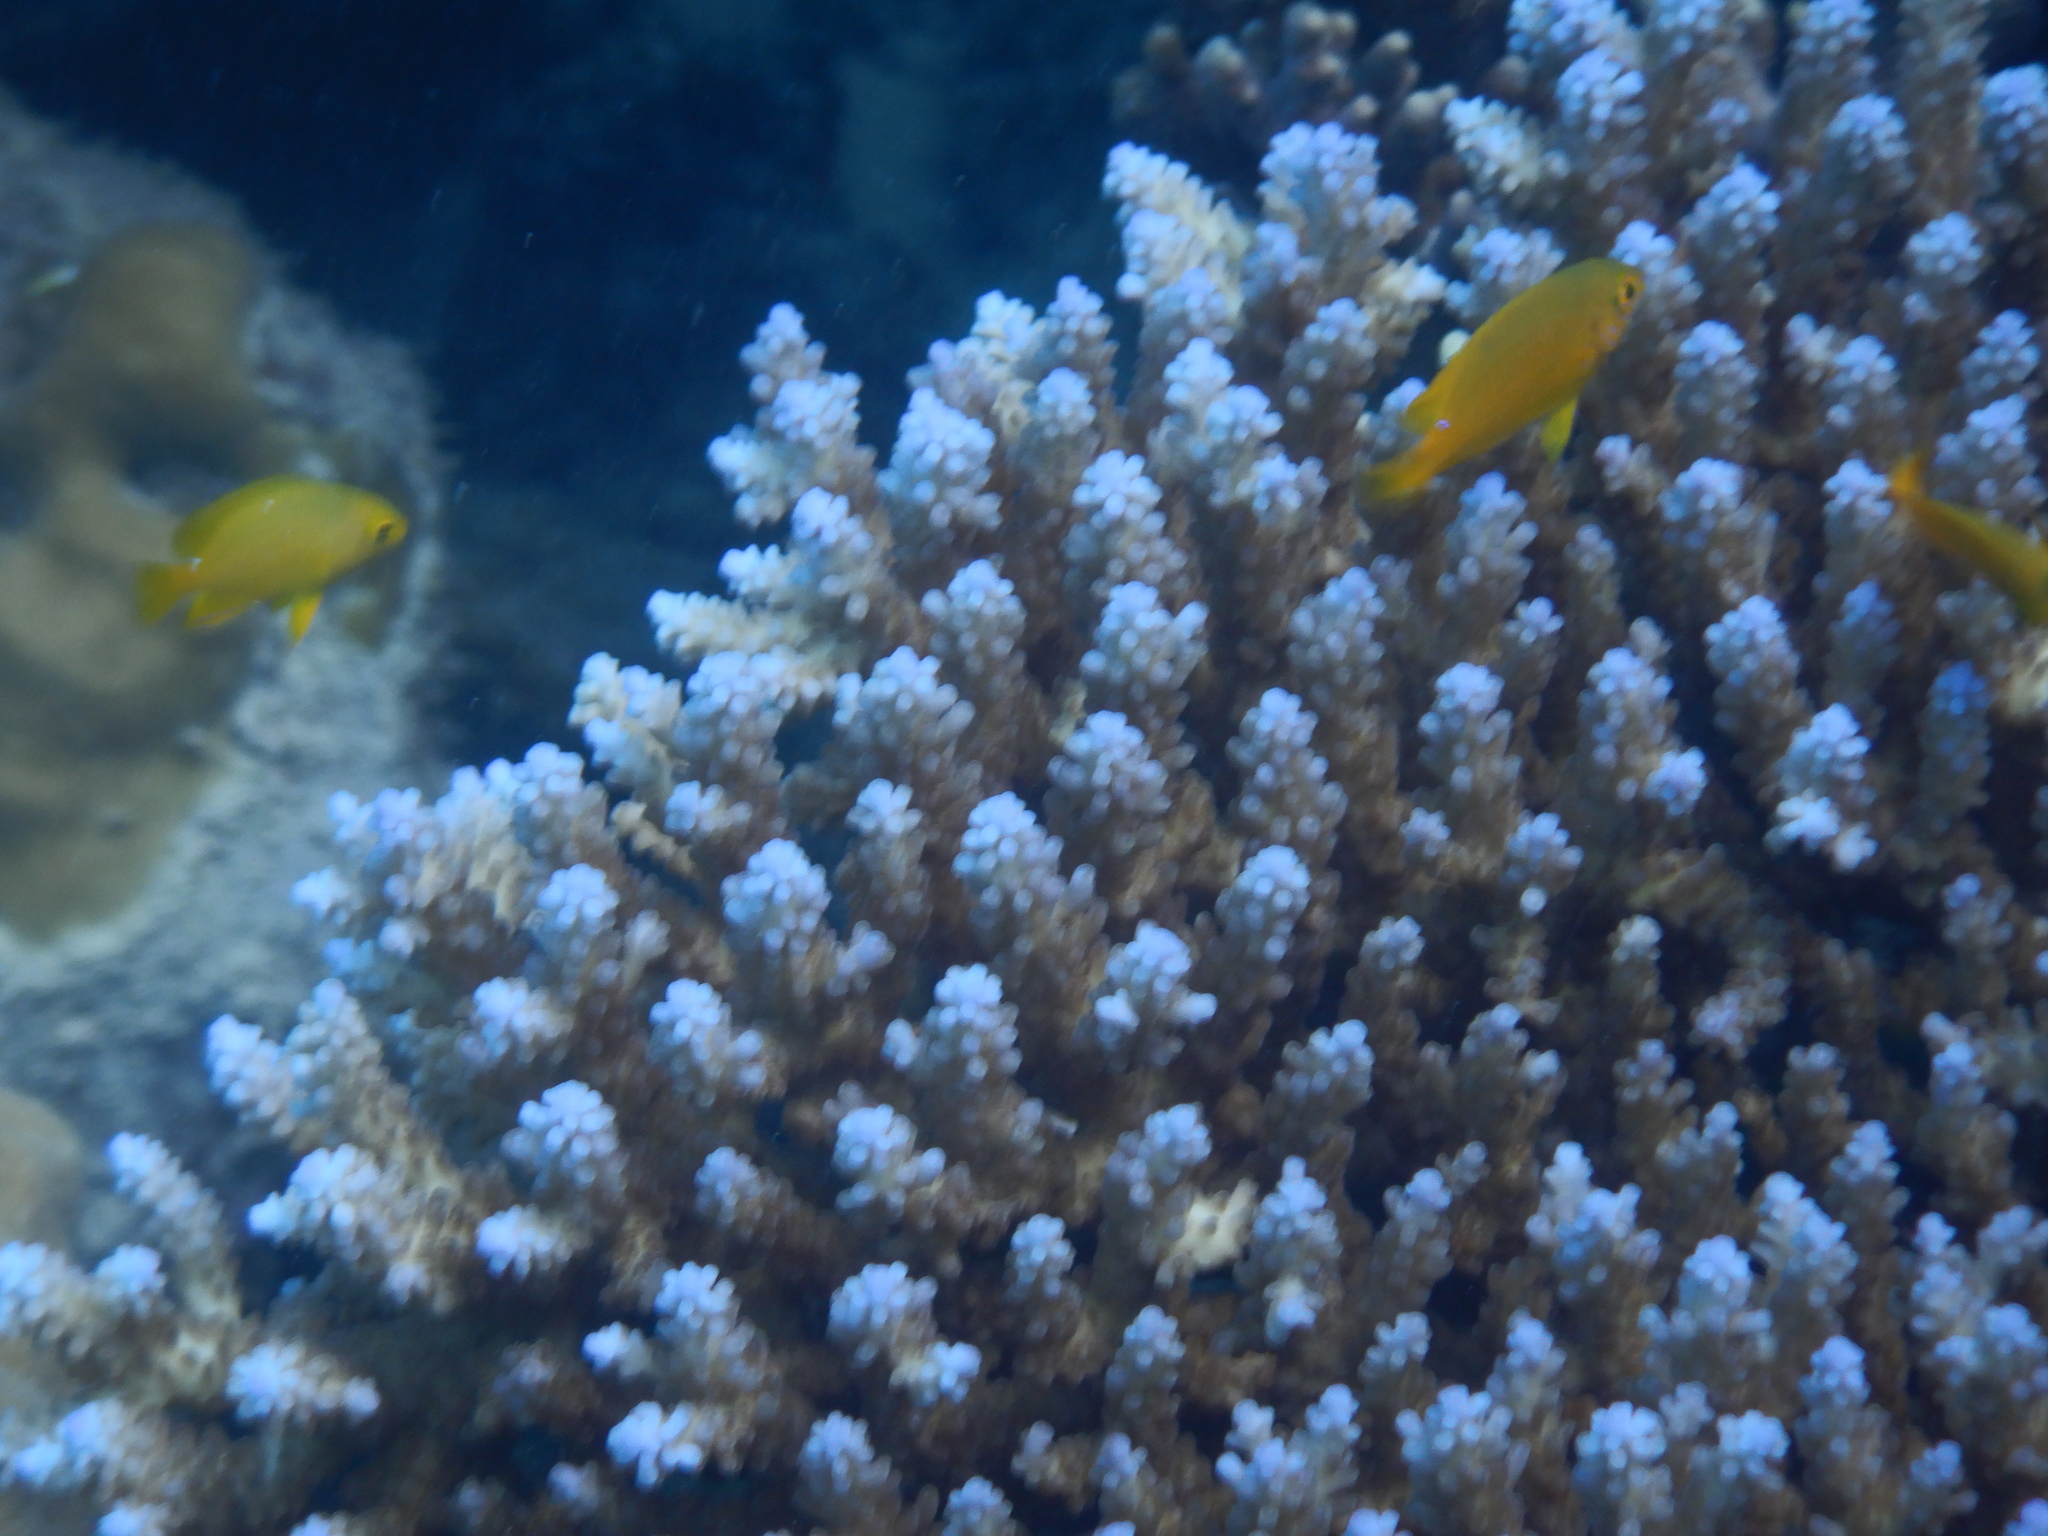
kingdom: Animalia
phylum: Chordata
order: Perciformes
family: Pomacentridae
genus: Pomacentrus
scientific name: Pomacentrus moluccensis
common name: Lemon damsel
